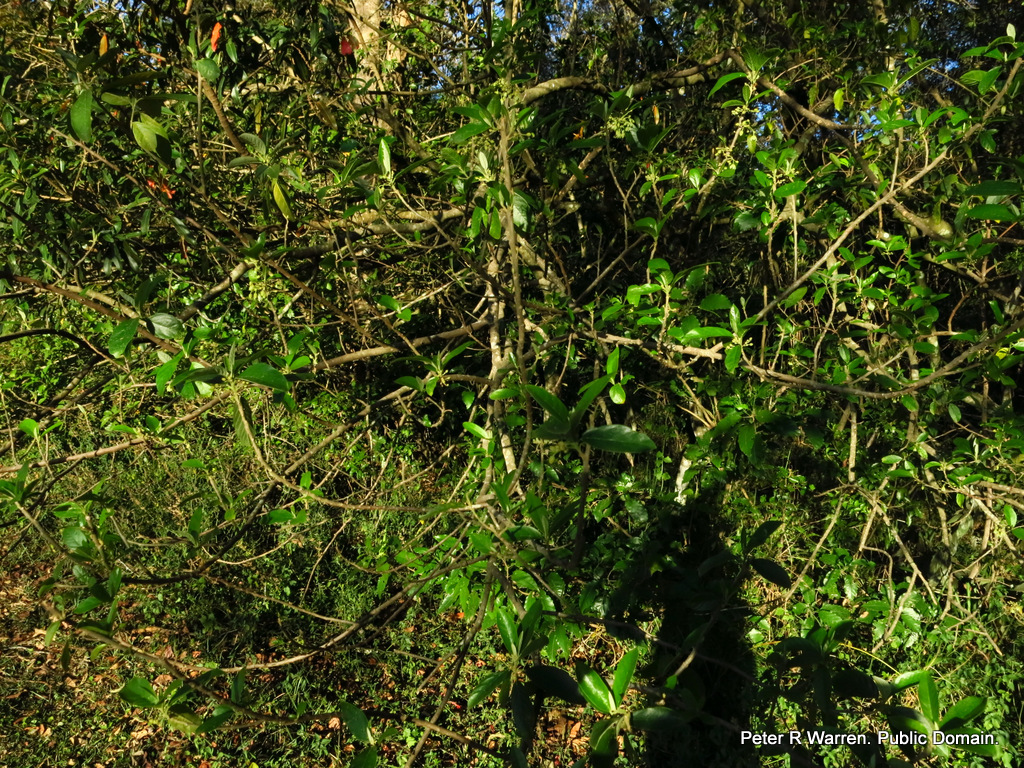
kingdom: Plantae
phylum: Tracheophyta
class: Magnoliopsida
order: Malpighiales
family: Achariaceae
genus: Kiggelaria
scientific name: Kiggelaria africana
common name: Wild peach
